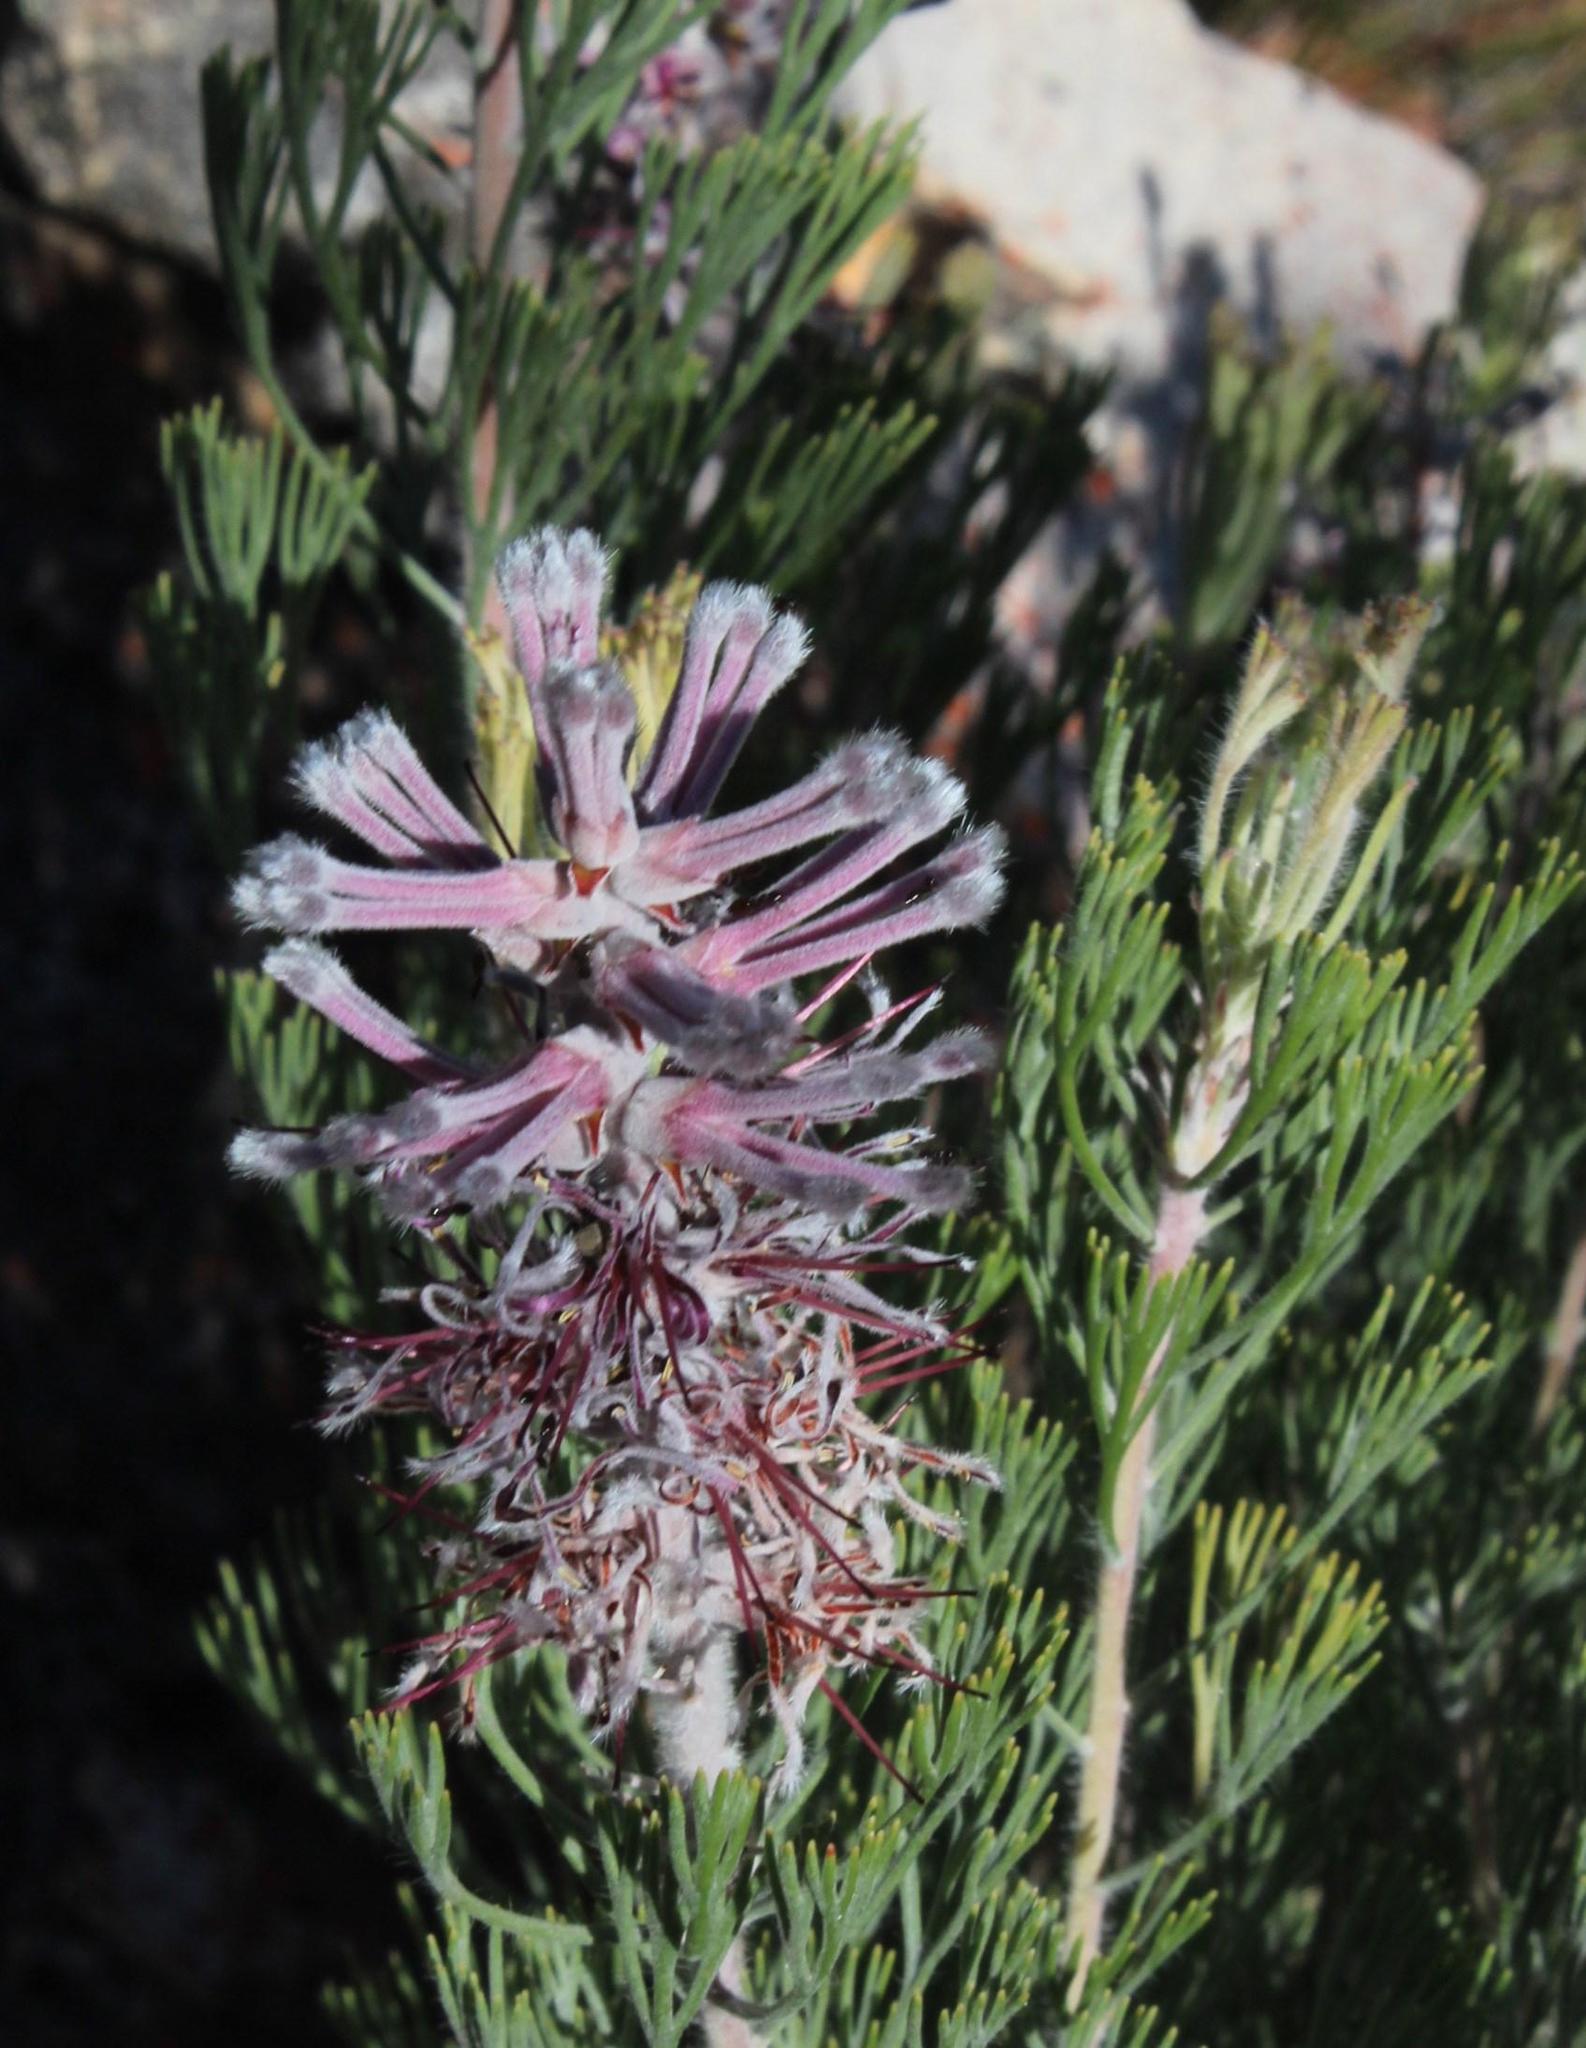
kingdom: Plantae
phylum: Tracheophyta
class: Magnoliopsida
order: Proteales
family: Proteaceae
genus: Paranomus
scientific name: Paranomus bracteolaris
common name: Bokkeveld tree sceptre
